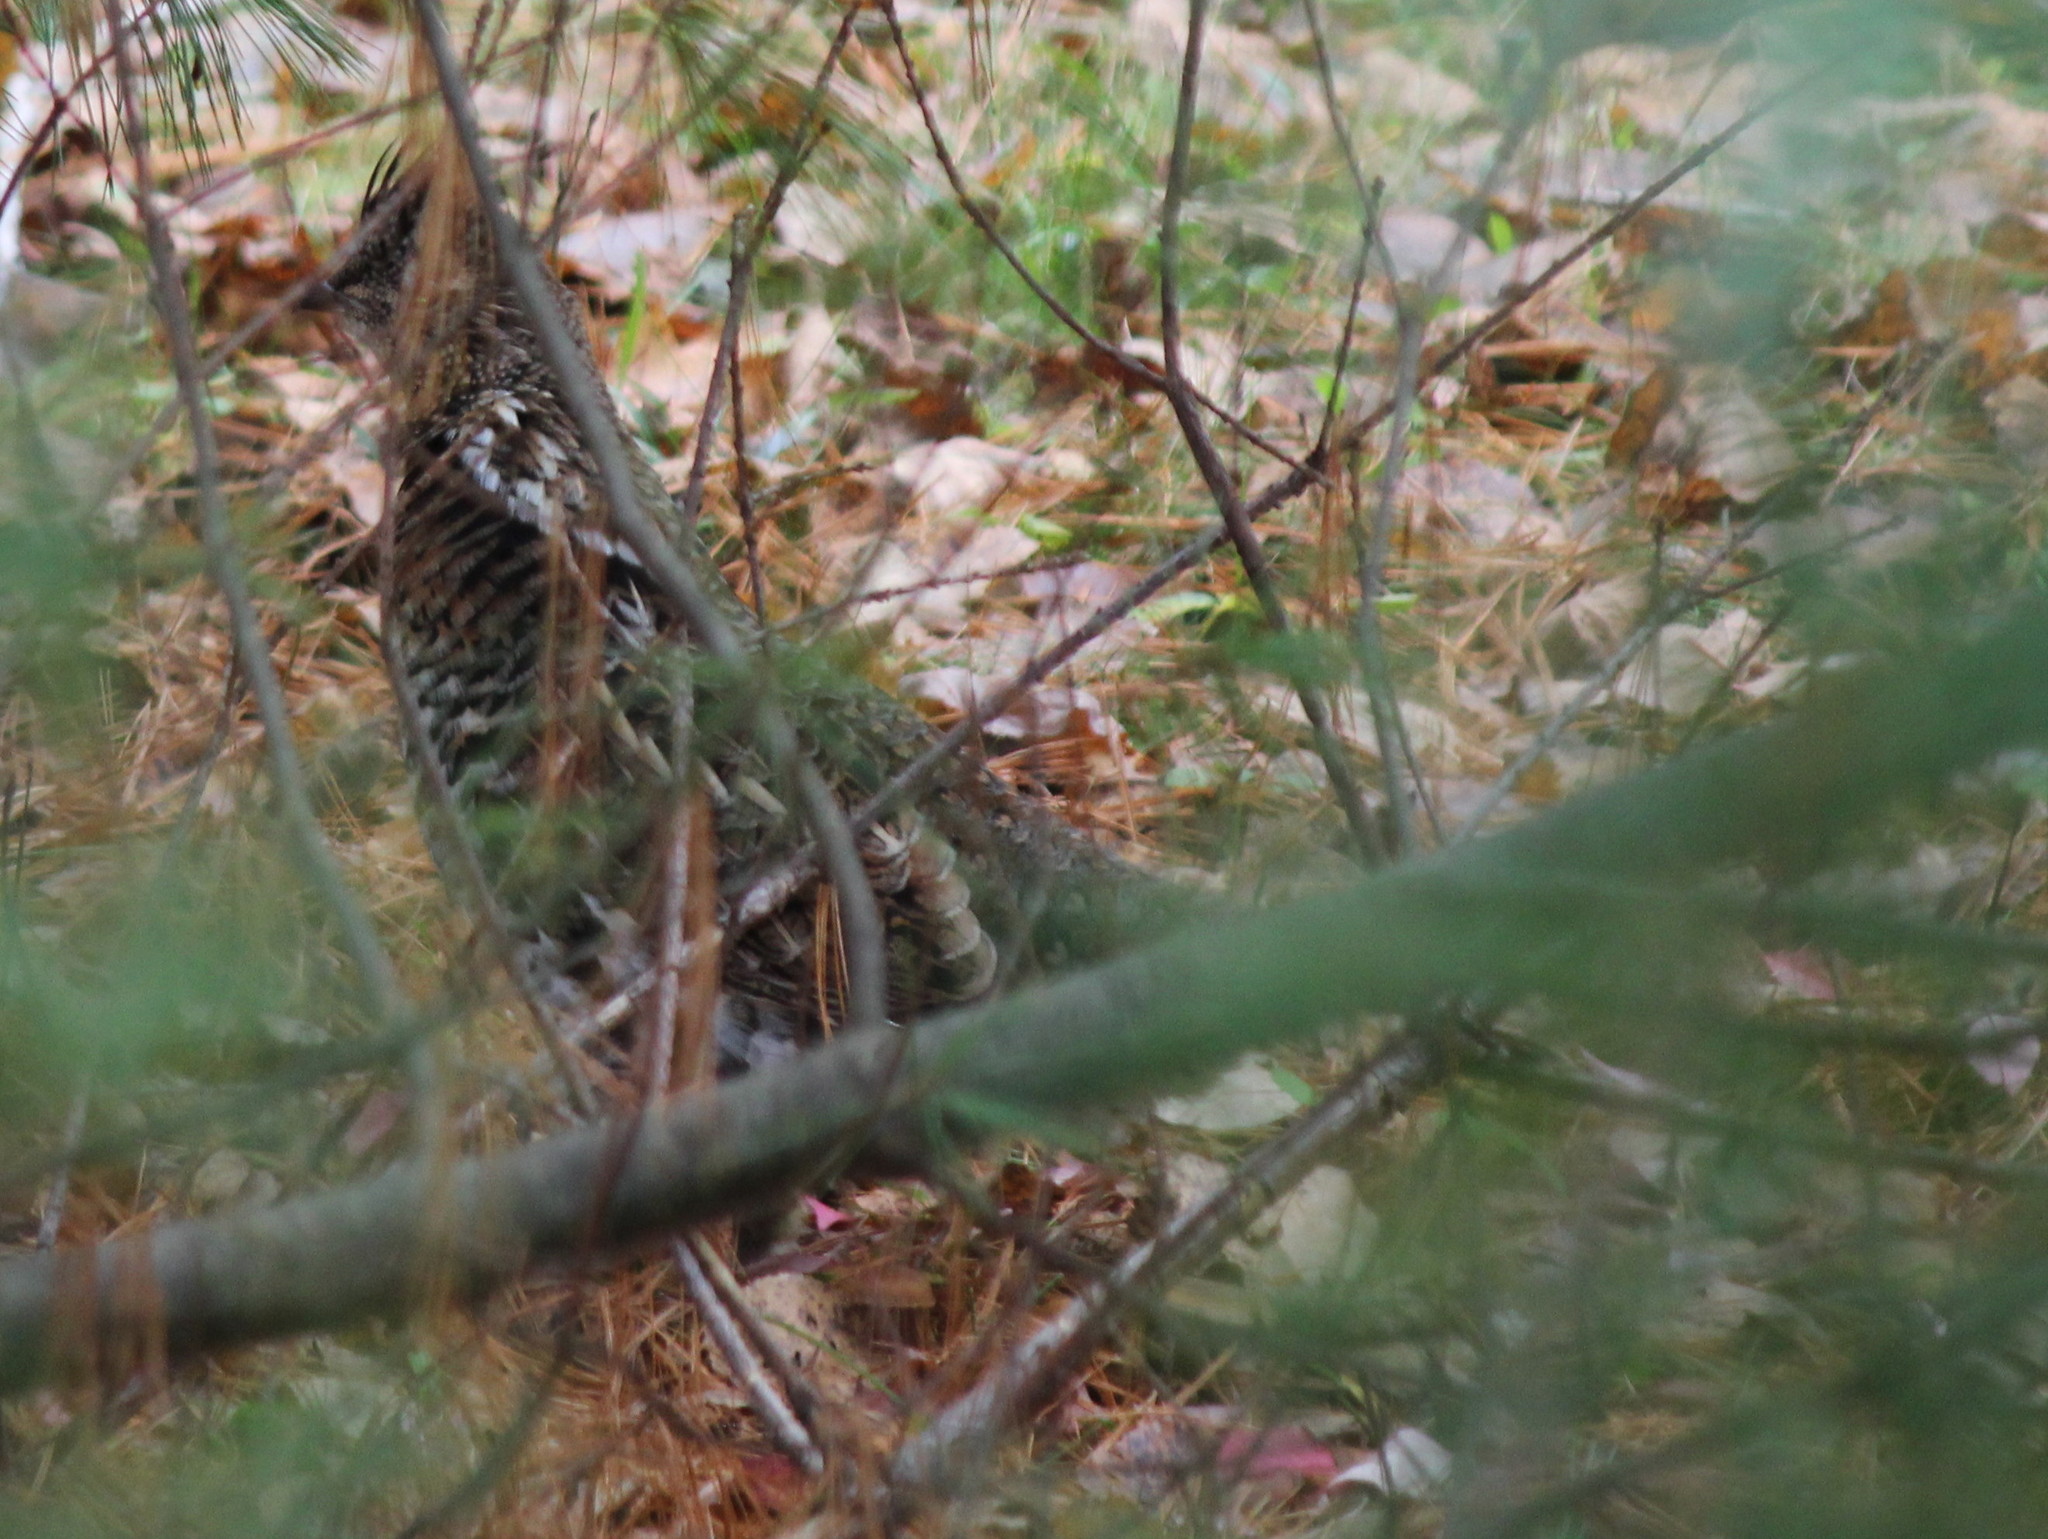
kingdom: Animalia
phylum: Chordata
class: Aves
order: Galliformes
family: Phasianidae
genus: Bonasa
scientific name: Bonasa umbellus
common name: Ruffed grouse
